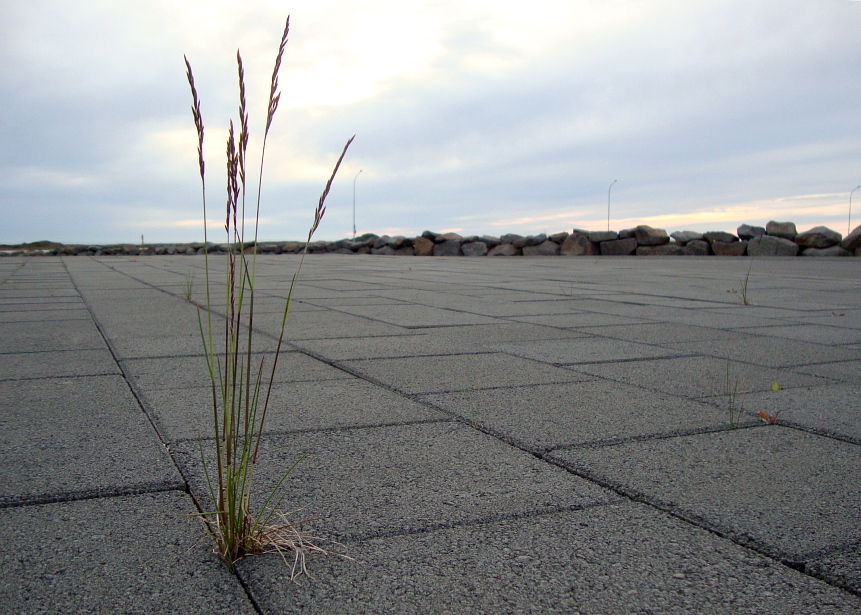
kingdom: Plantae
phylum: Tracheophyta
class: Liliopsida
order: Poales
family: Poaceae
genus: Festuca
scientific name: Festuca rubra
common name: Red fescue
